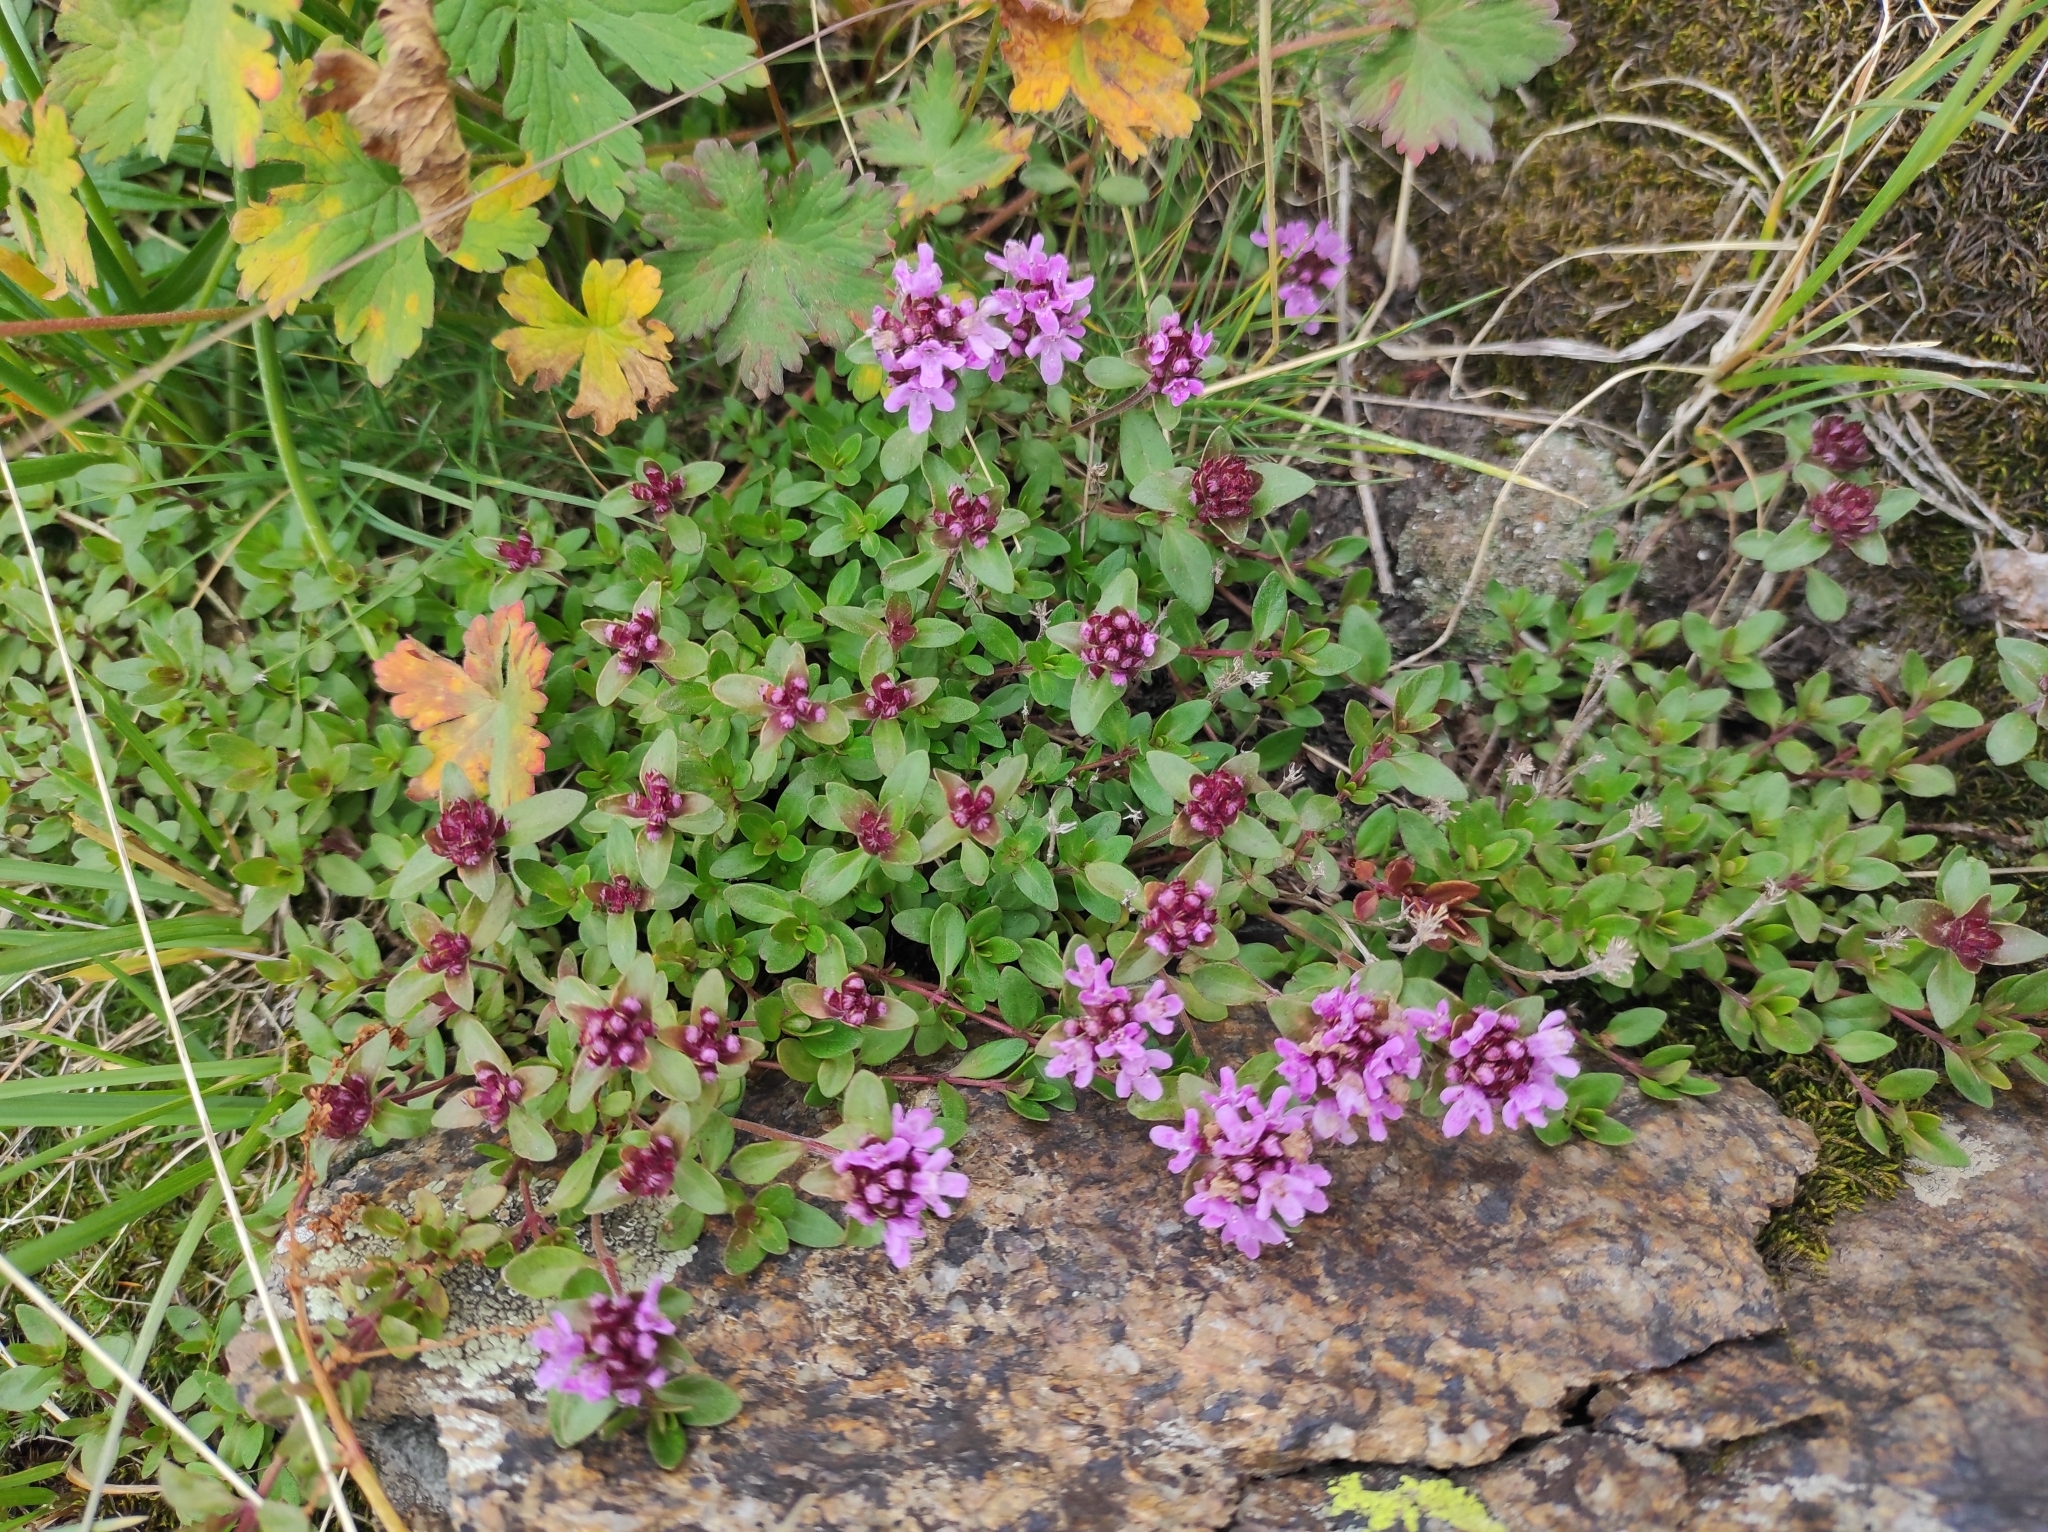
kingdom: Plantae
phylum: Tracheophyta
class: Magnoliopsida
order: Lamiales
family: Lamiaceae
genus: Thymus
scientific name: Thymus seravschanicus
